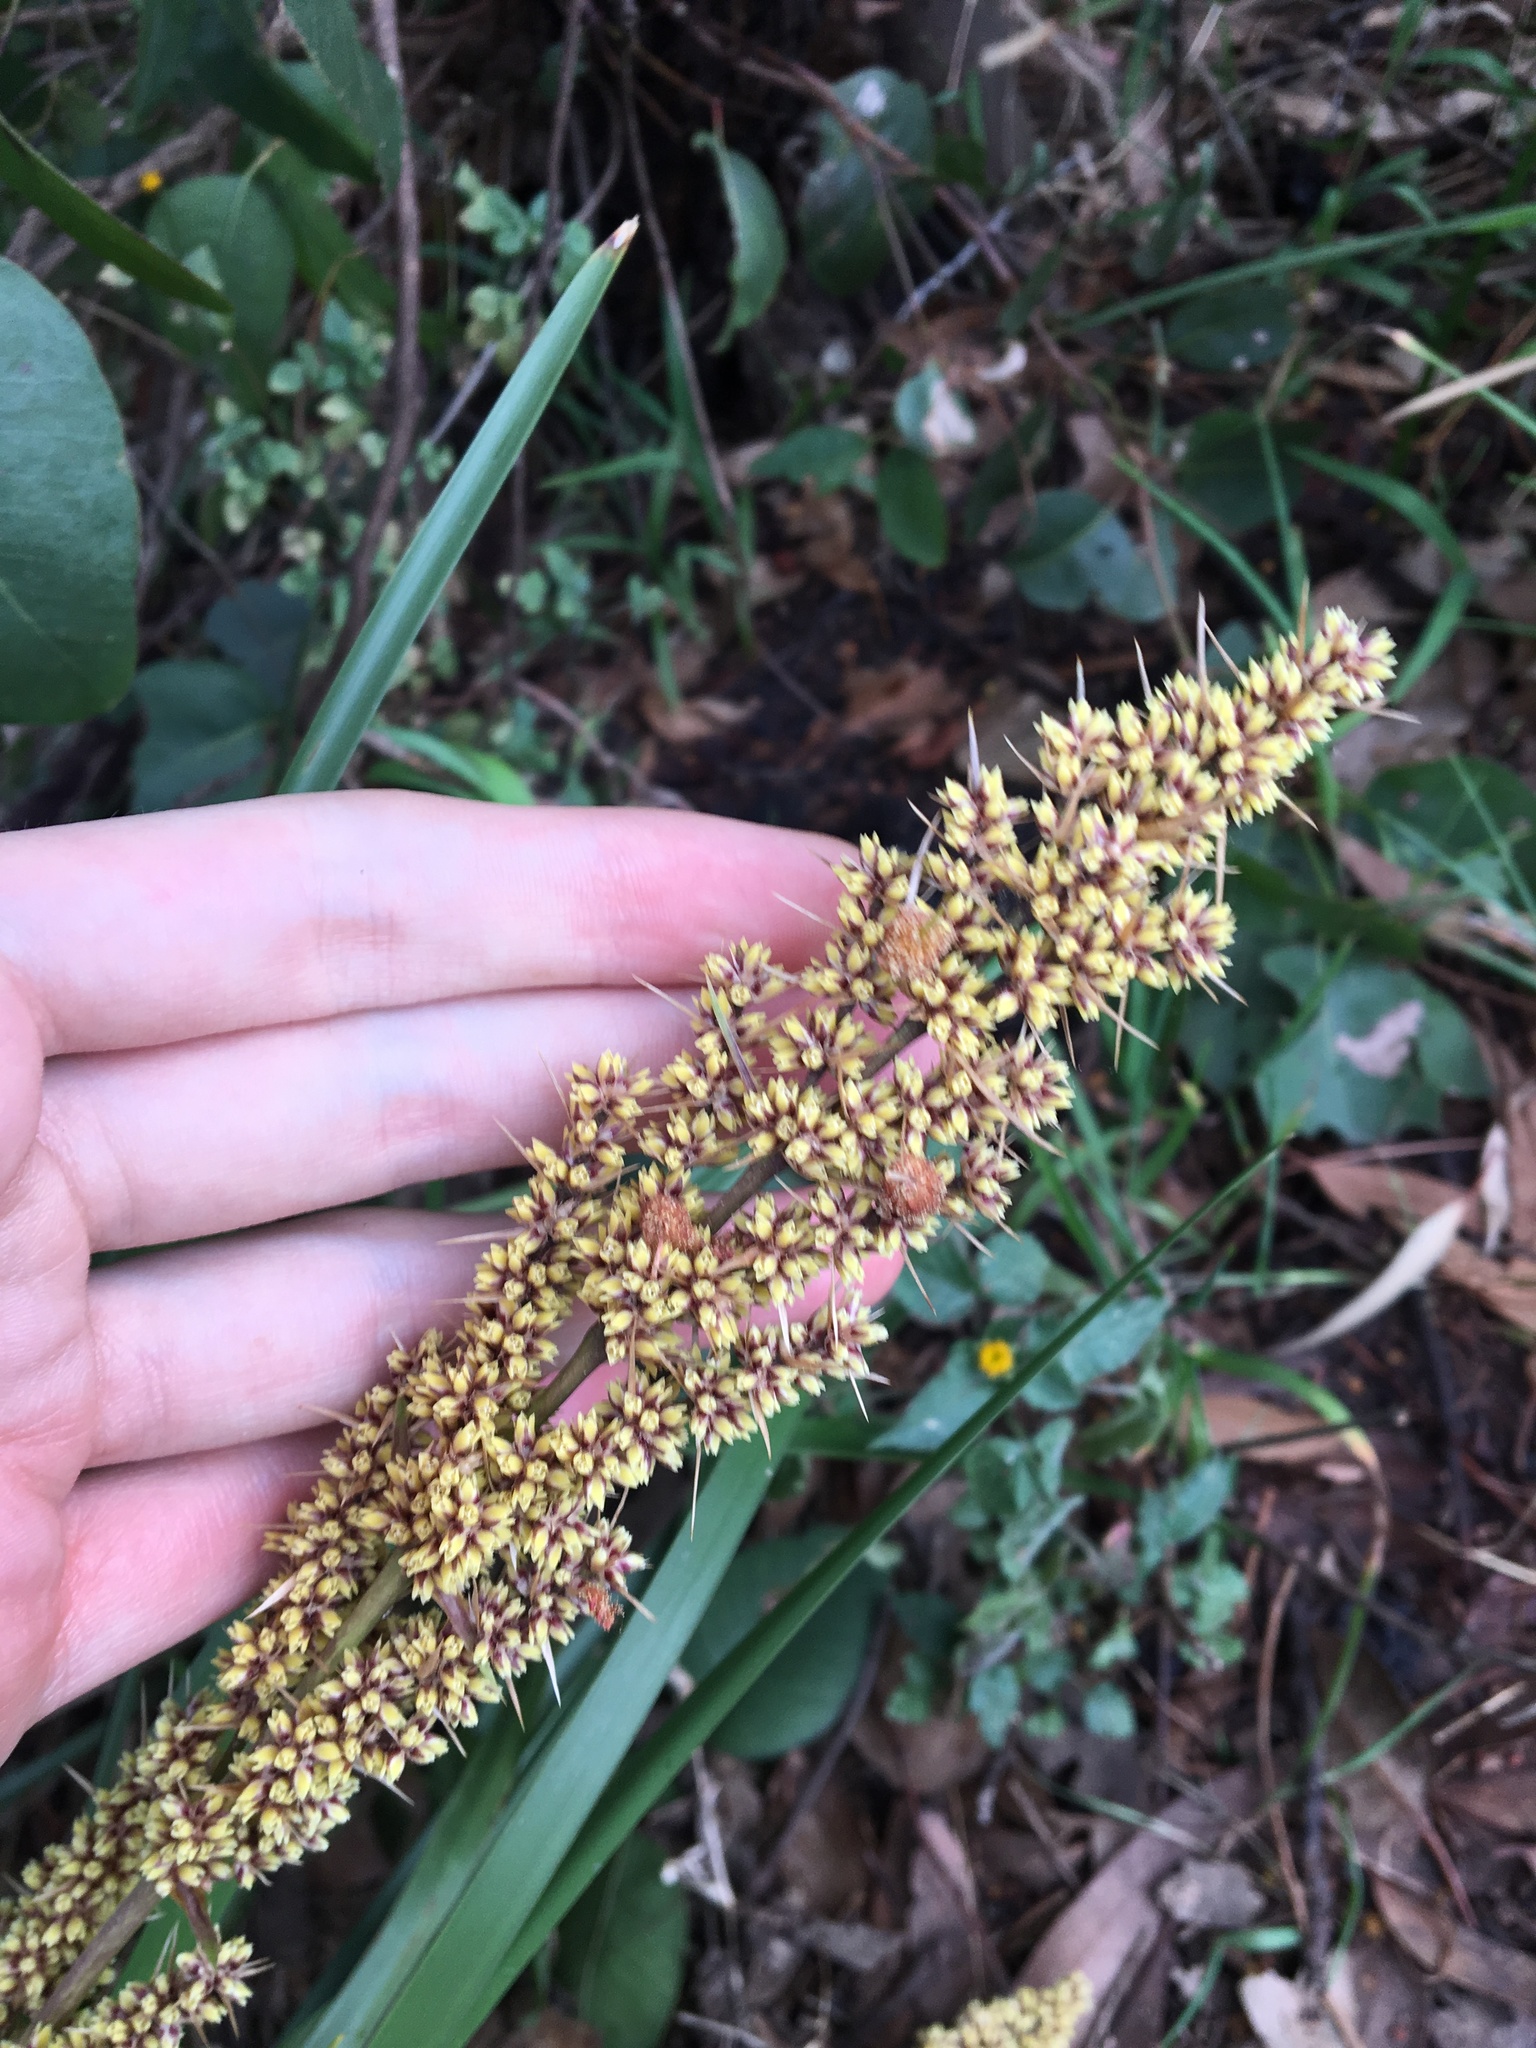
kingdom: Plantae
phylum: Tracheophyta
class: Liliopsida
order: Asparagales
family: Asparagaceae
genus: Lomandra
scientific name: Lomandra longifolia
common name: Longleaf mat-rush
